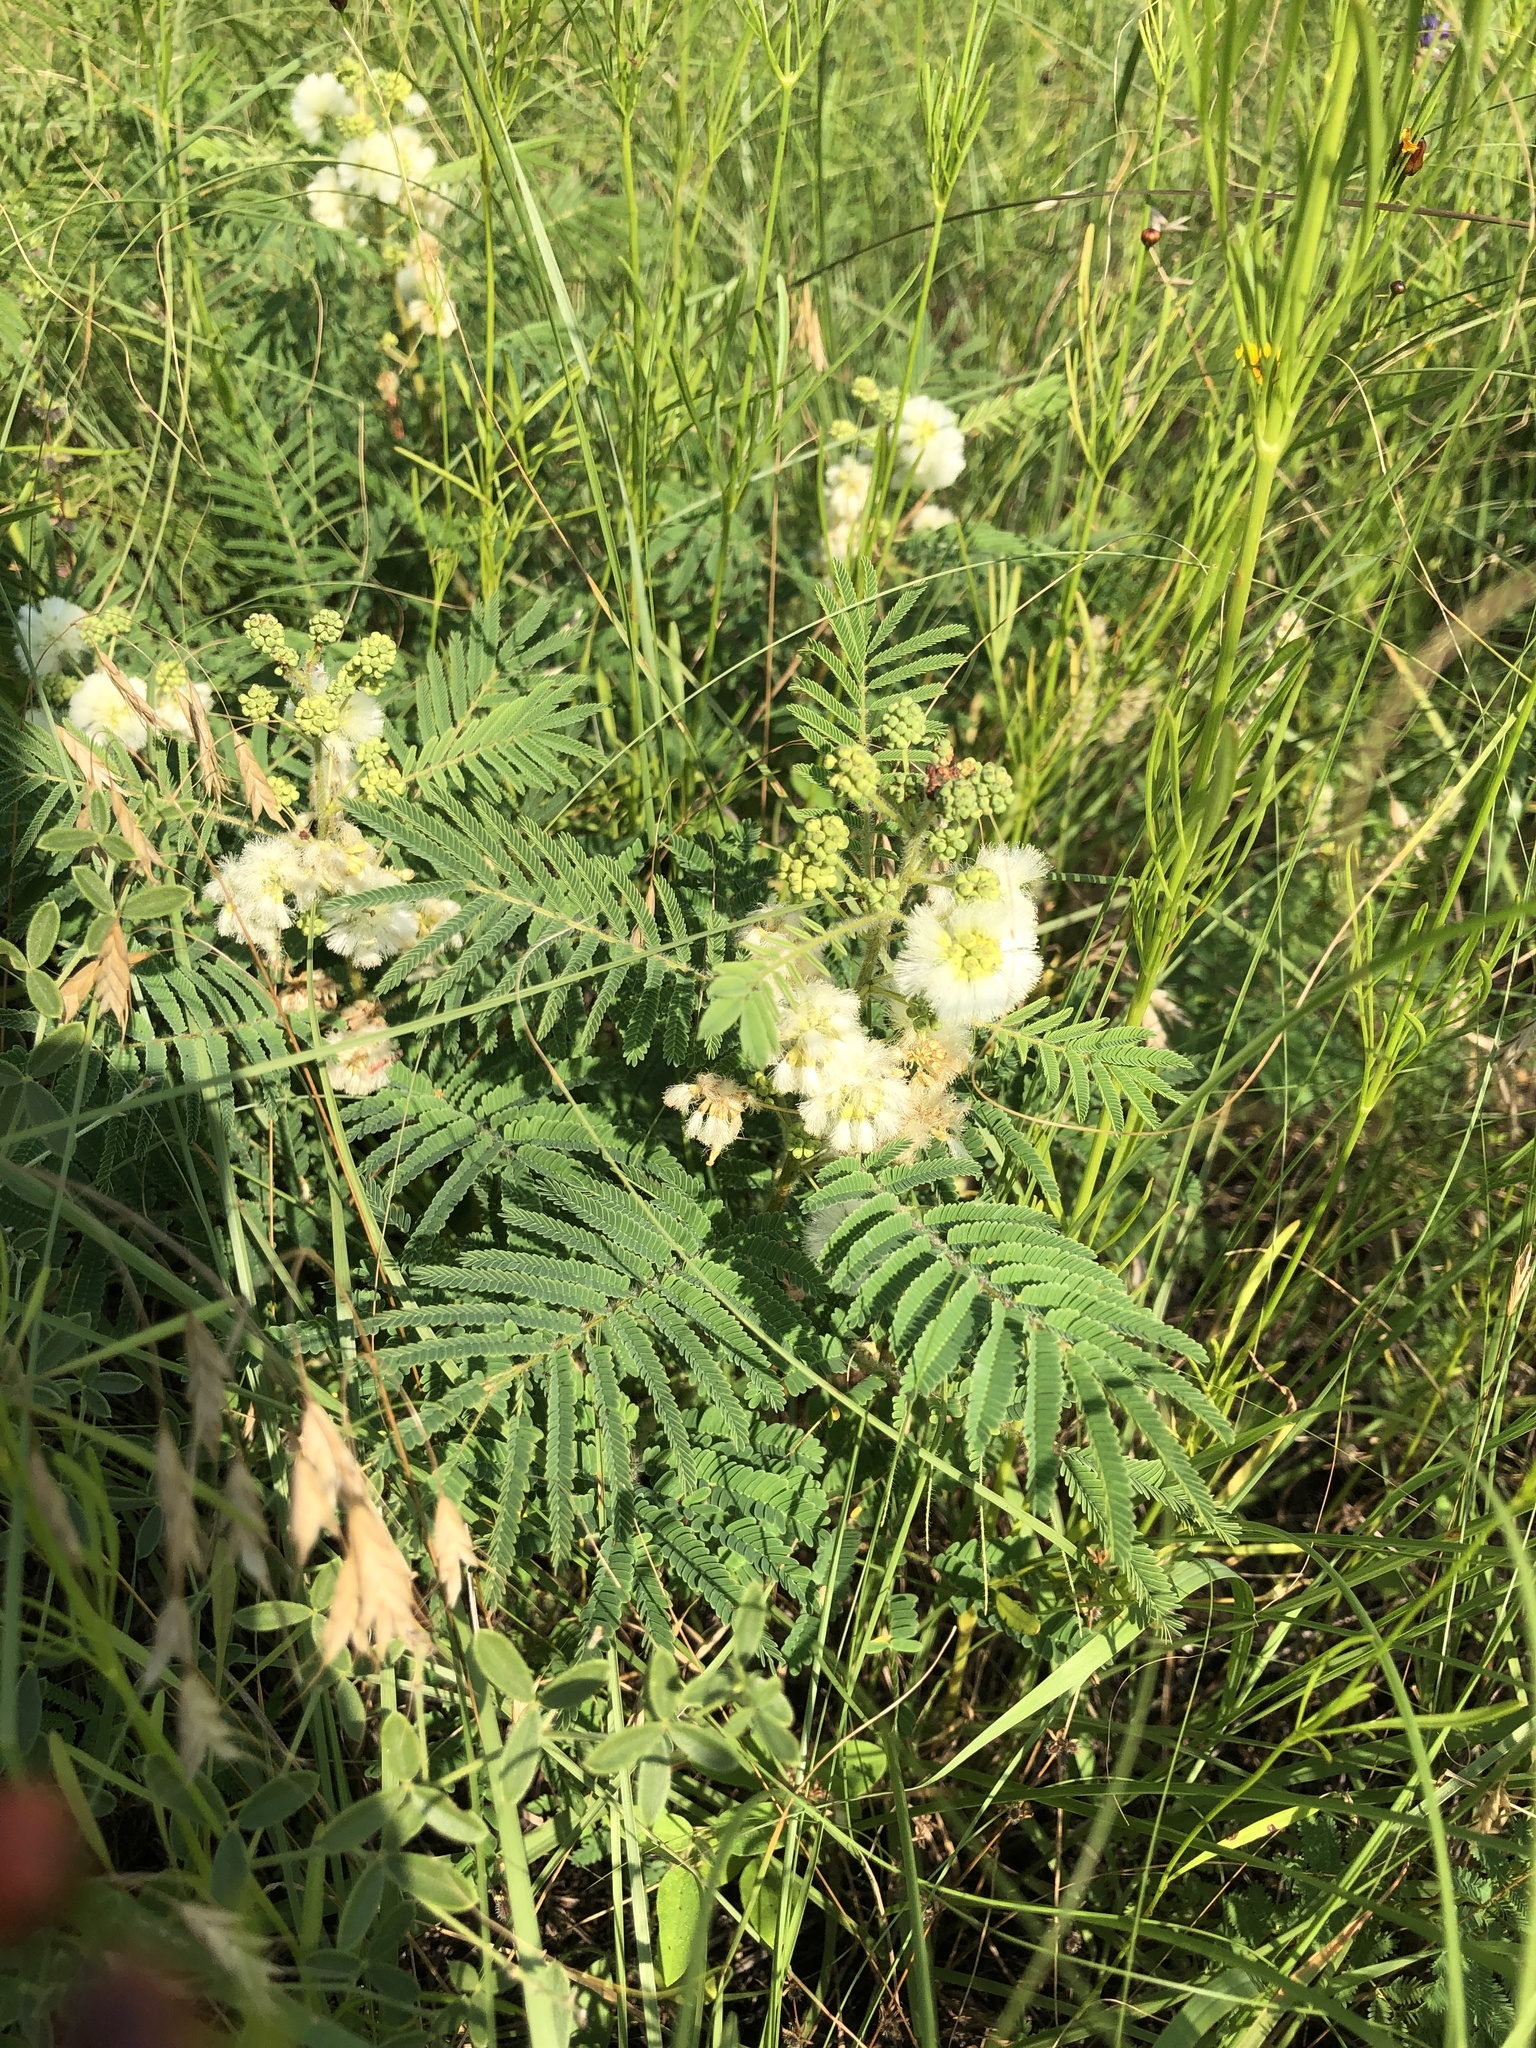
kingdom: Plantae
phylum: Tracheophyta
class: Magnoliopsida
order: Fabales
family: Fabaceae
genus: Acaciella
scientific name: Acaciella angustissima
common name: Prairie acacia
